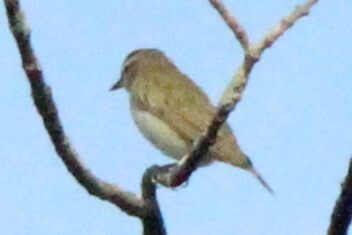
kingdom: Animalia
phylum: Chordata
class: Aves
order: Passeriformes
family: Vireonidae
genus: Vireo
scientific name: Vireo olivaceus
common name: Red-eyed vireo
